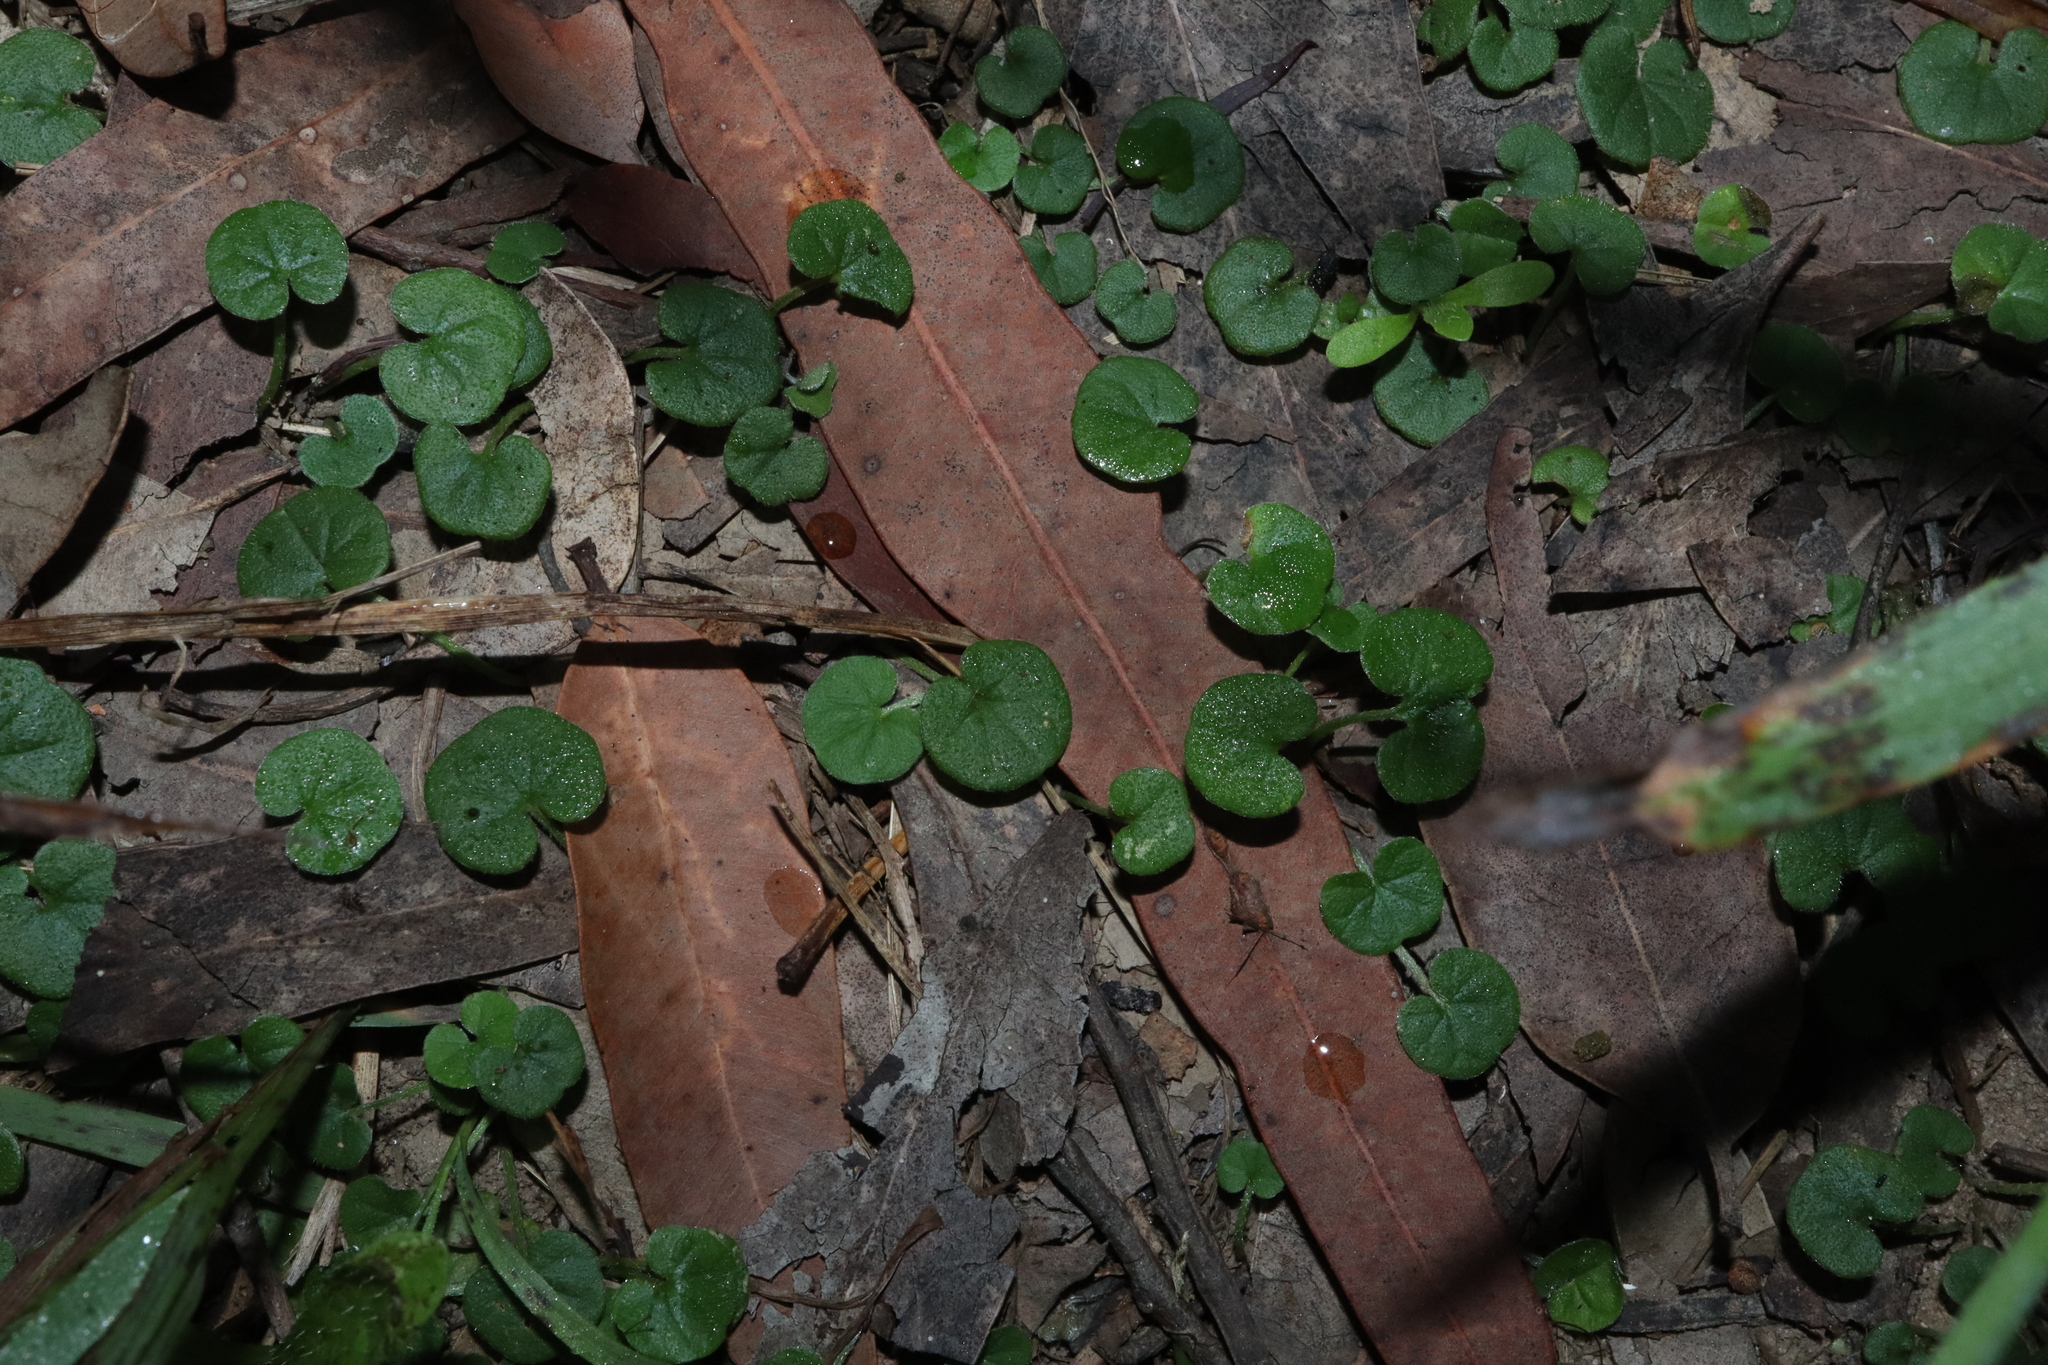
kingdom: Plantae
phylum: Tracheophyta
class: Magnoliopsida
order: Solanales
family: Convolvulaceae
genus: Dichondra
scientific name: Dichondra repens
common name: Kidneyweed
